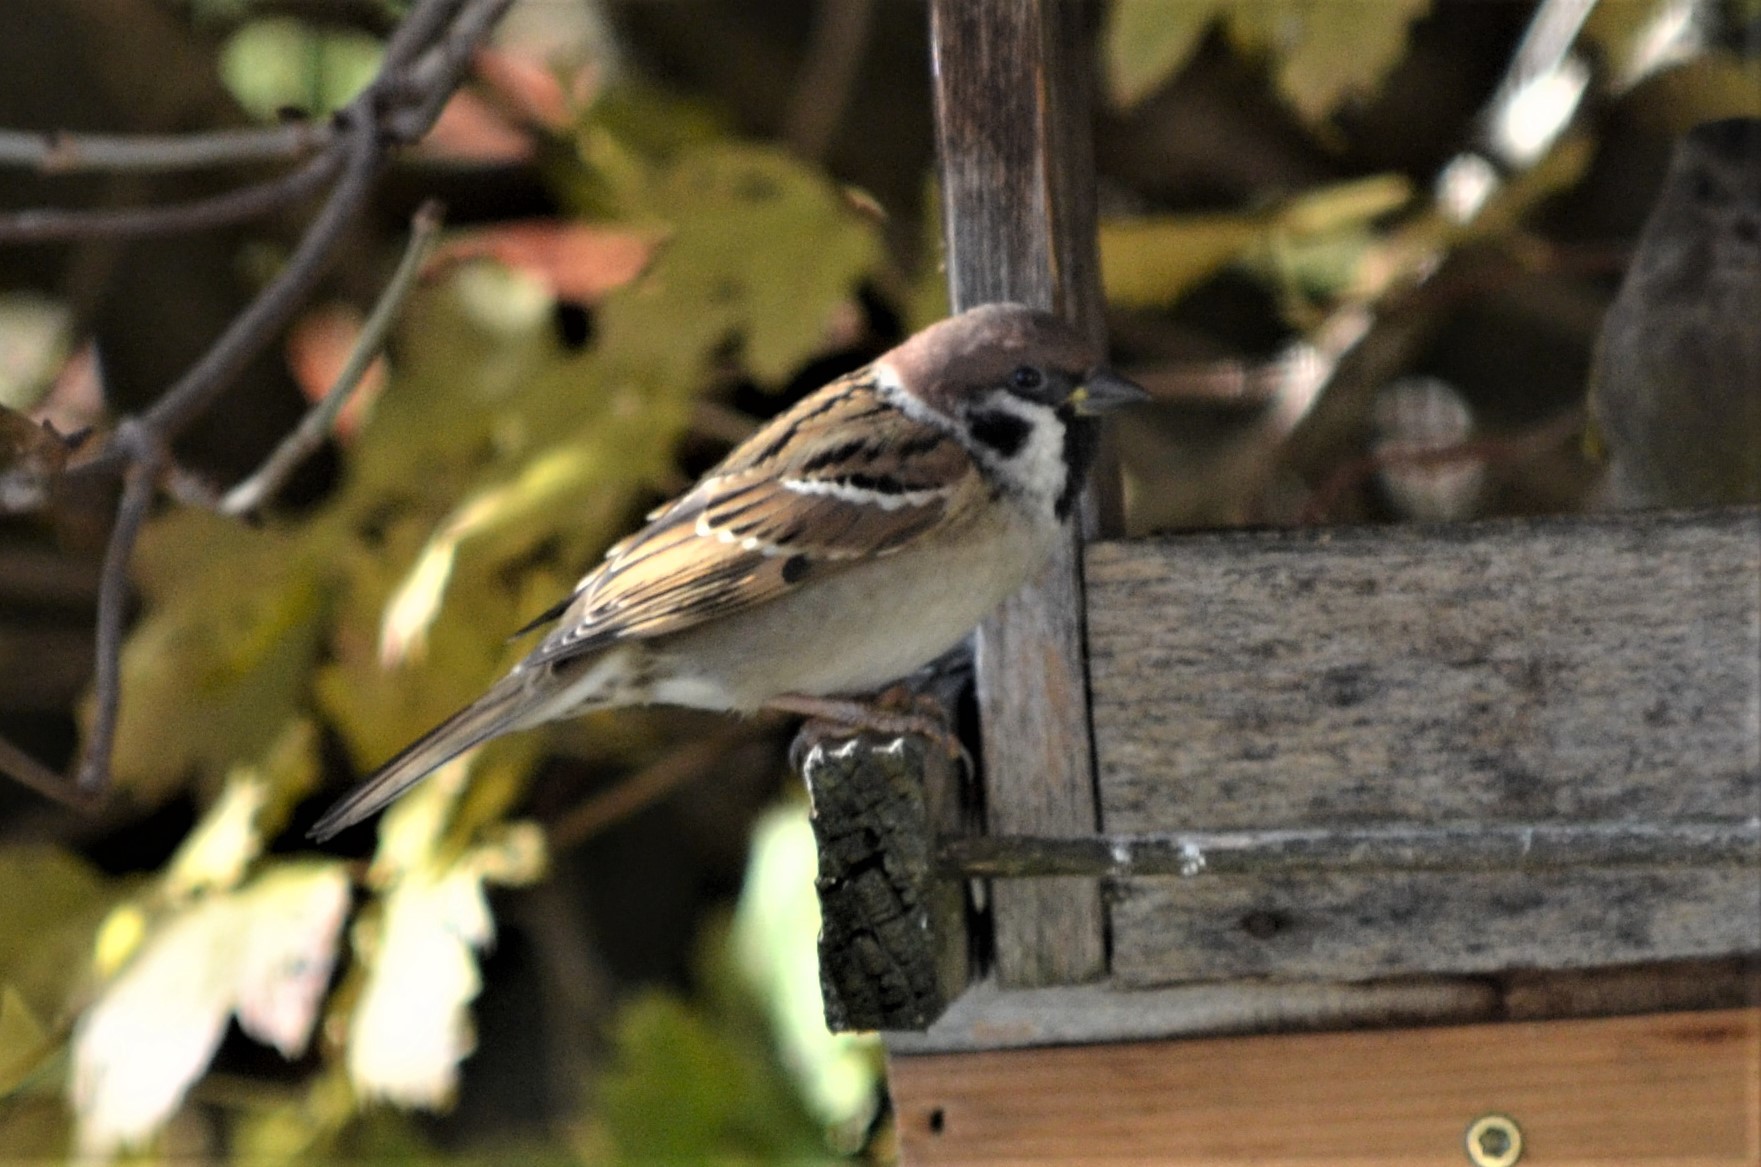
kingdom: Animalia
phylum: Chordata
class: Aves
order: Passeriformes
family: Passeridae
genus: Passer
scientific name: Passer montanus
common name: Eurasian tree sparrow
